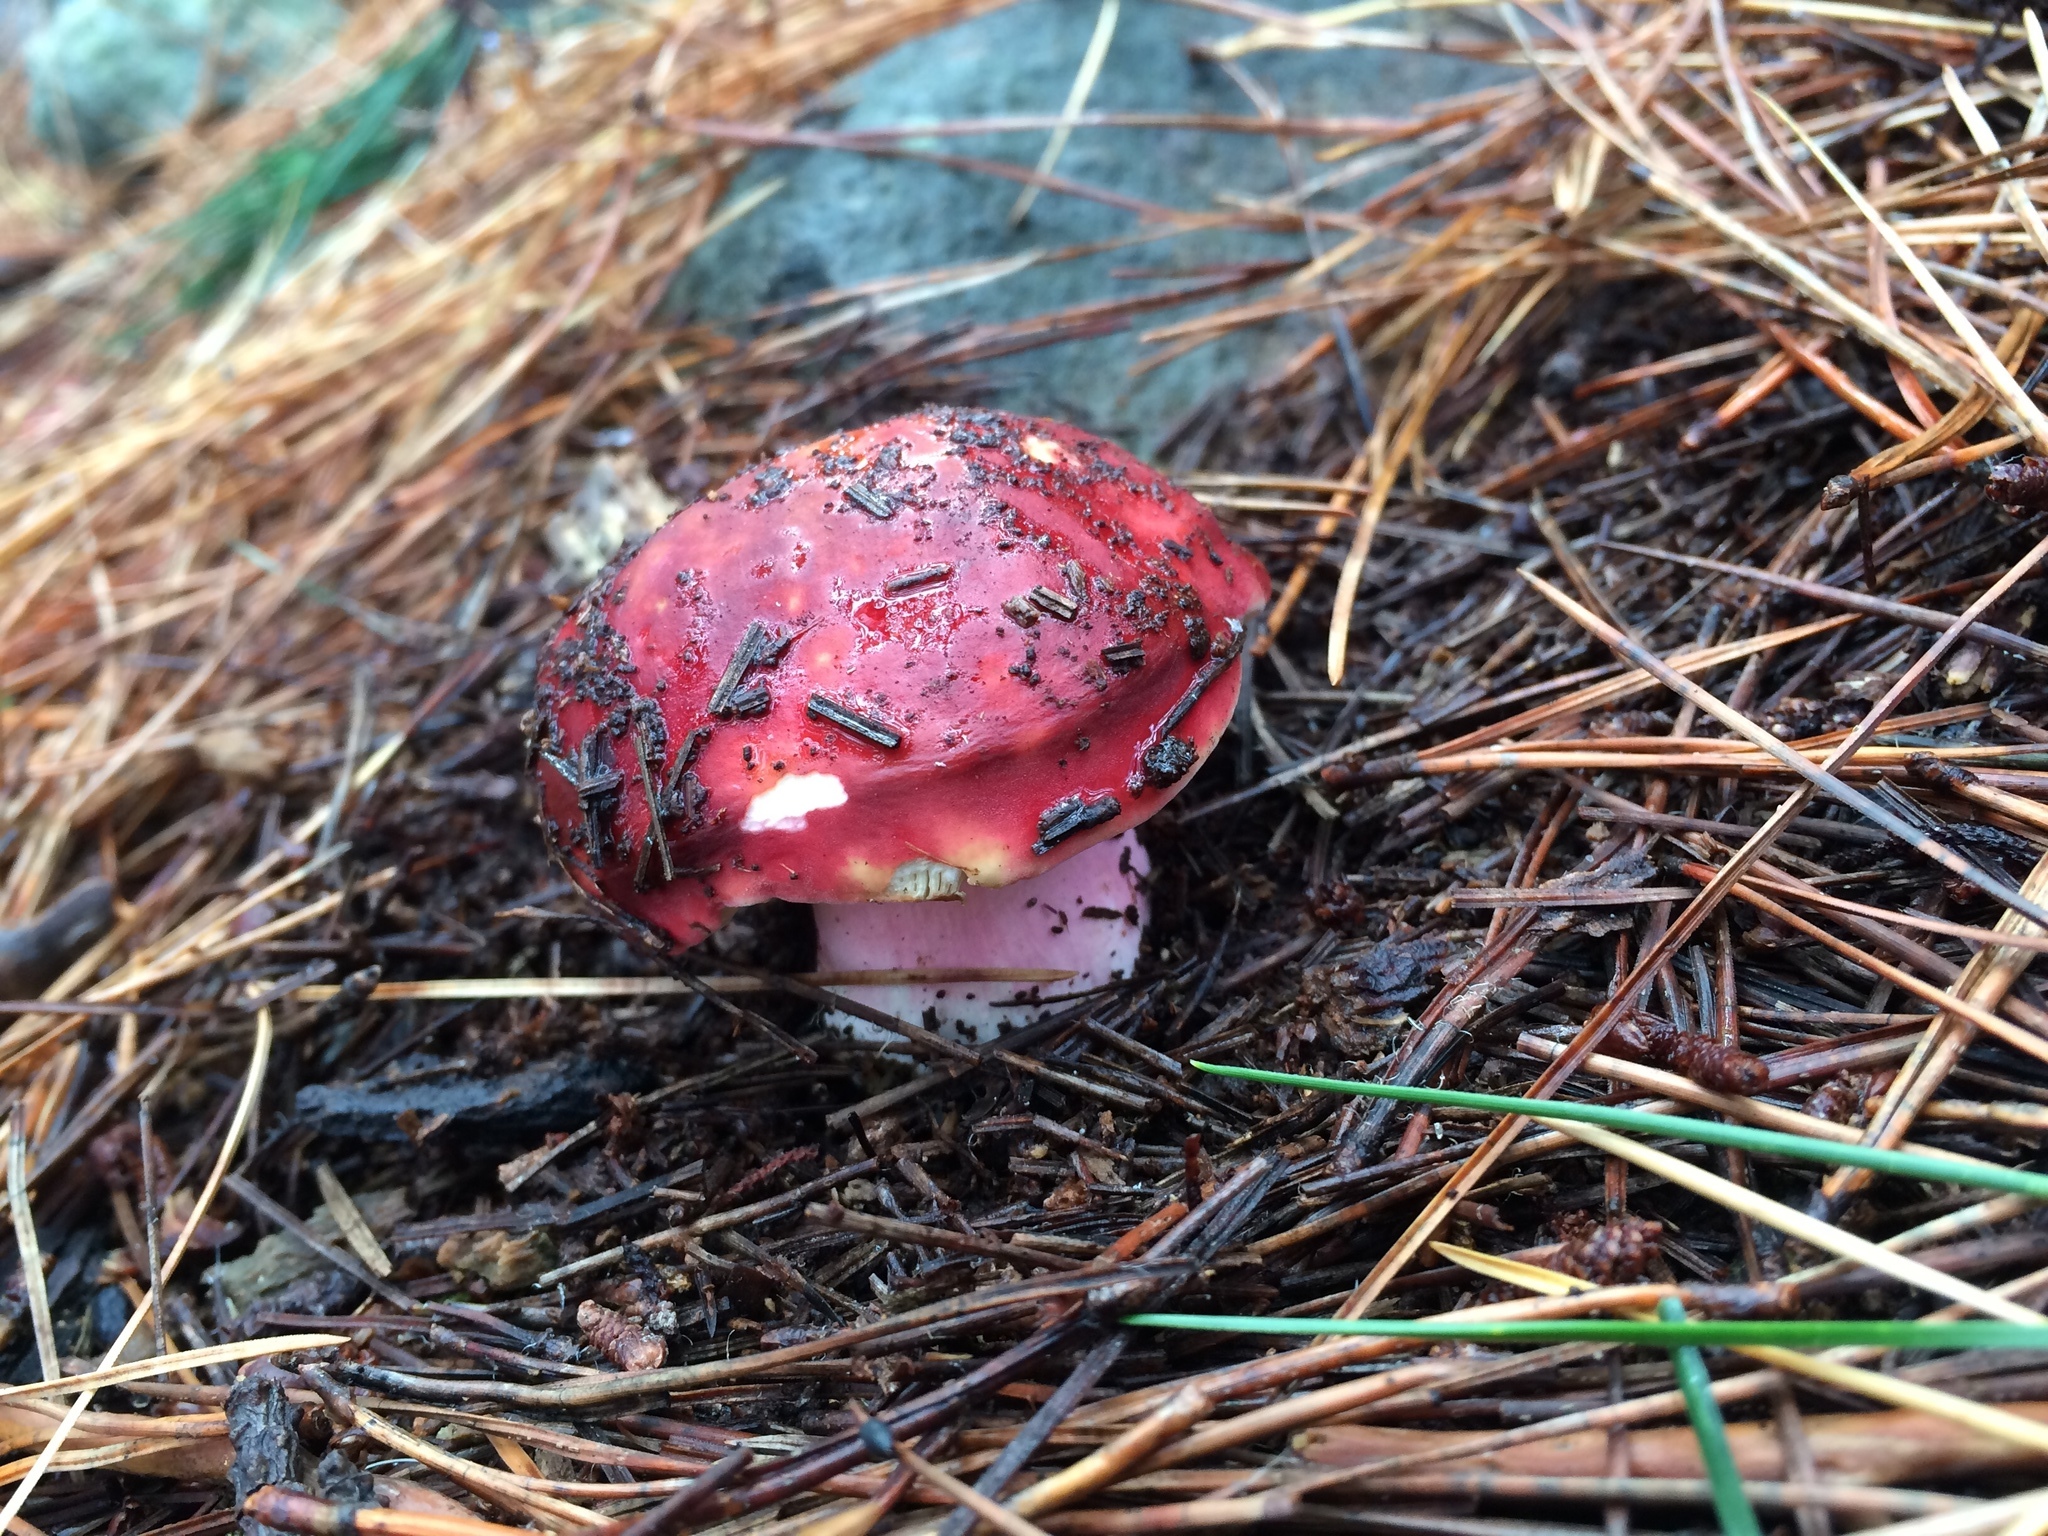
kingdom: Fungi
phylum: Basidiomycota
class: Agaricomycetes
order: Russulales
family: Russulaceae
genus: Russula
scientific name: Russula sardonia
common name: Primrose brittlegill
